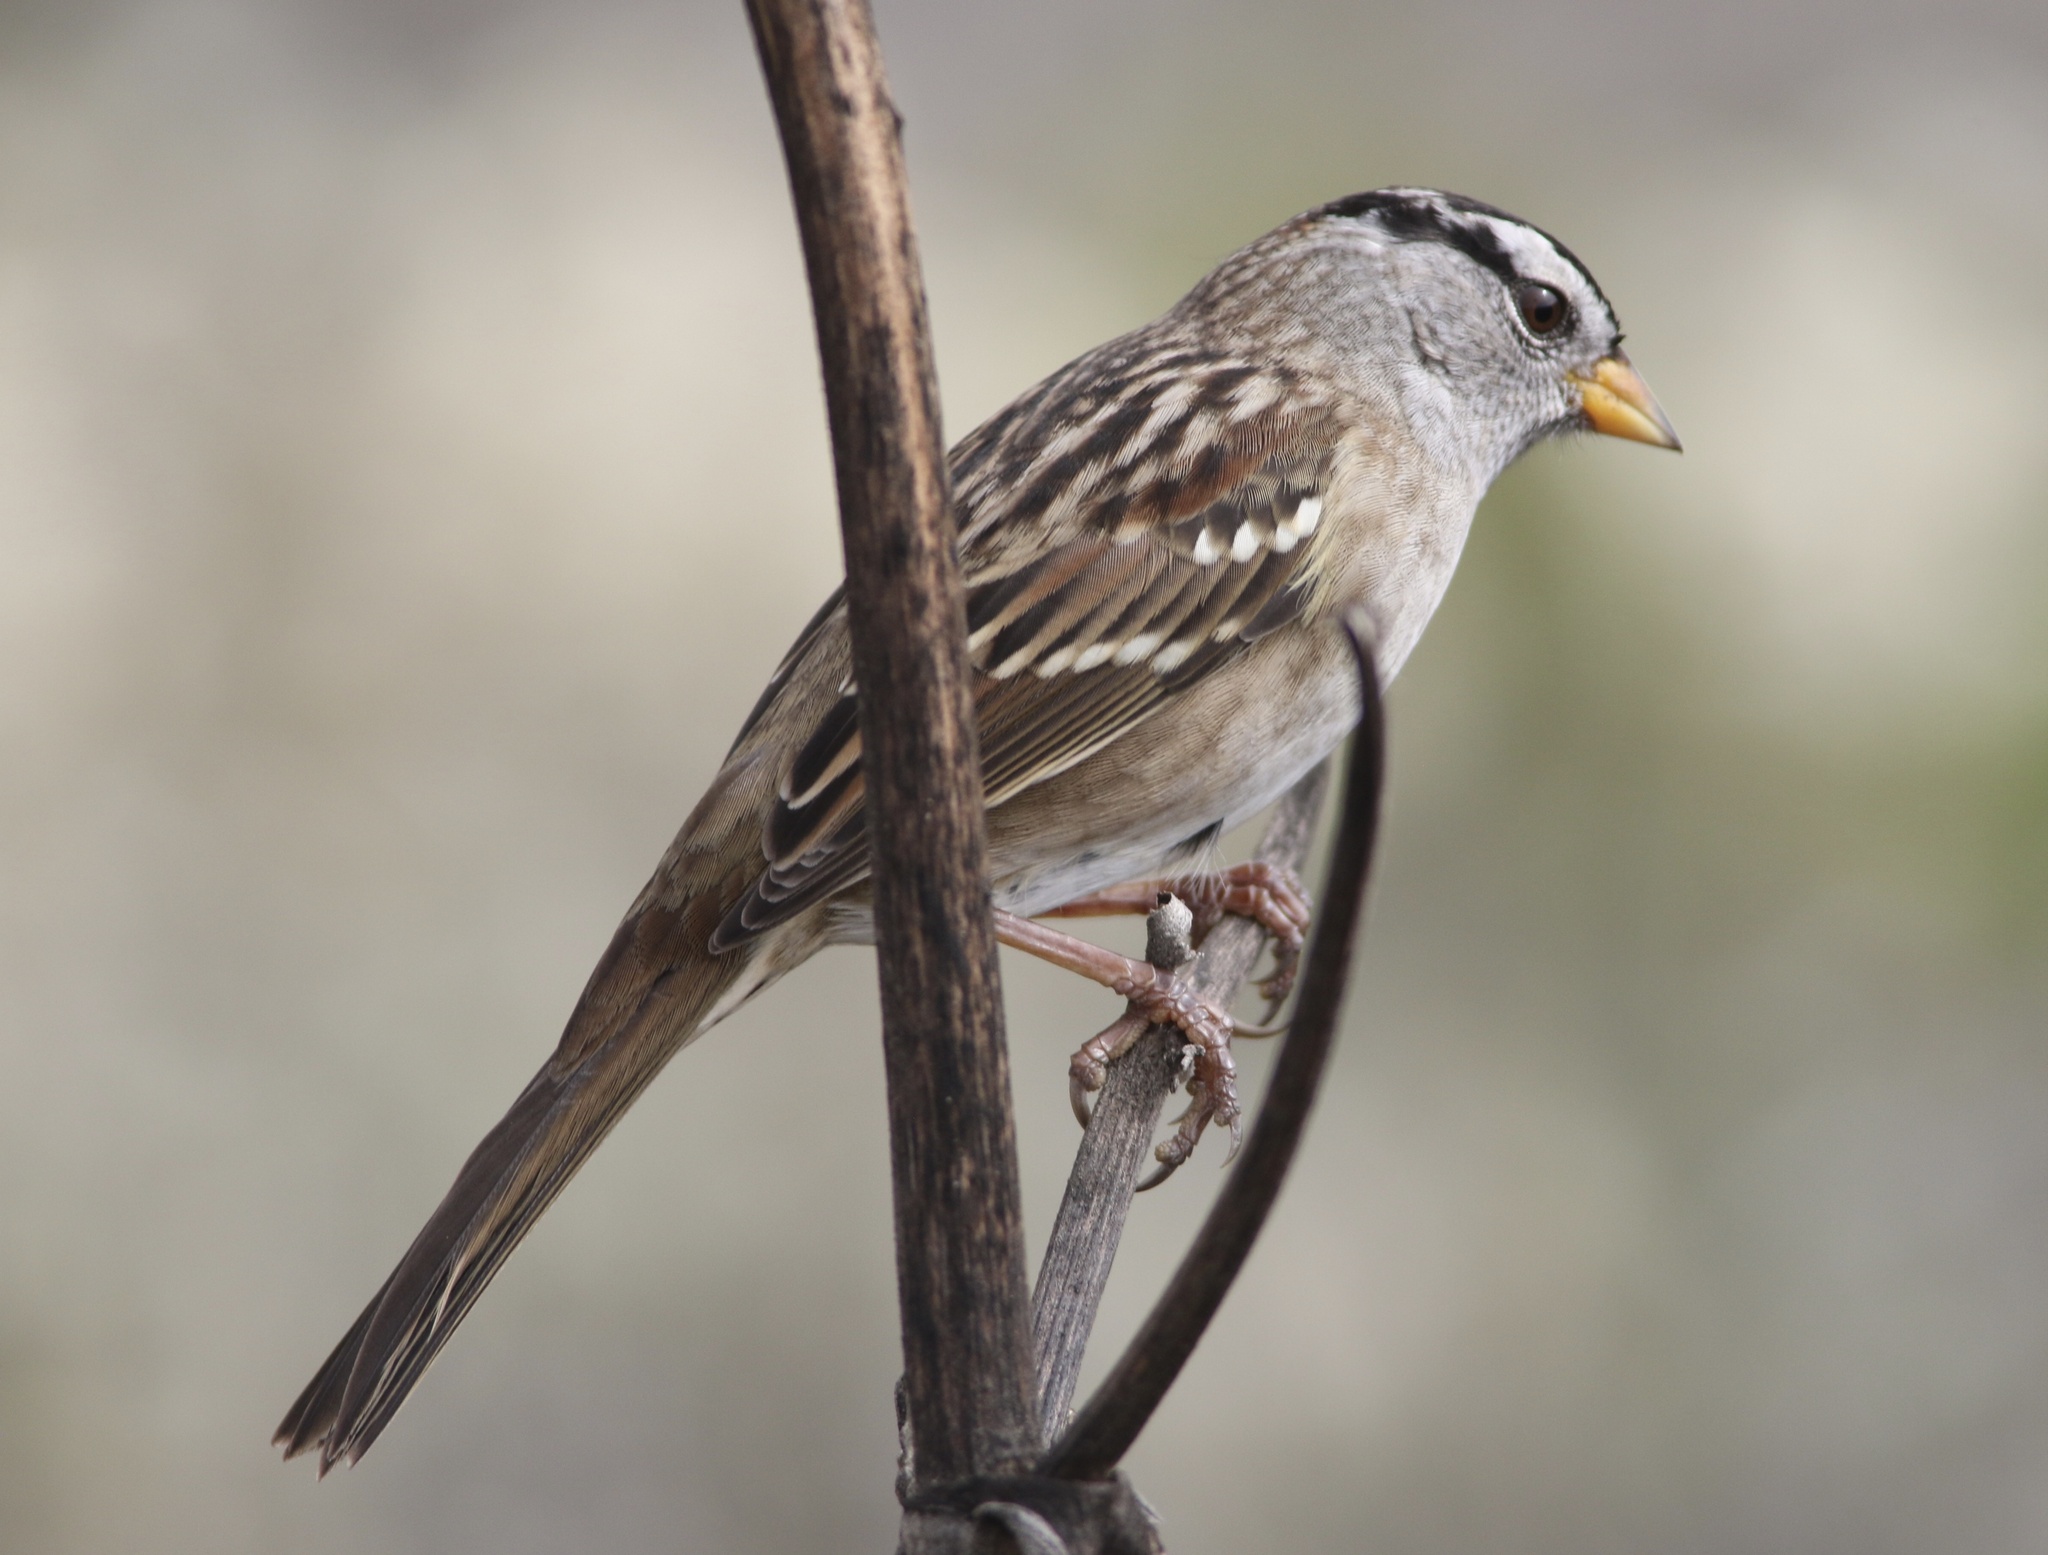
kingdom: Animalia
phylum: Chordata
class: Aves
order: Passeriformes
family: Passerellidae
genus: Zonotrichia
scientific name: Zonotrichia leucophrys
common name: White-crowned sparrow
